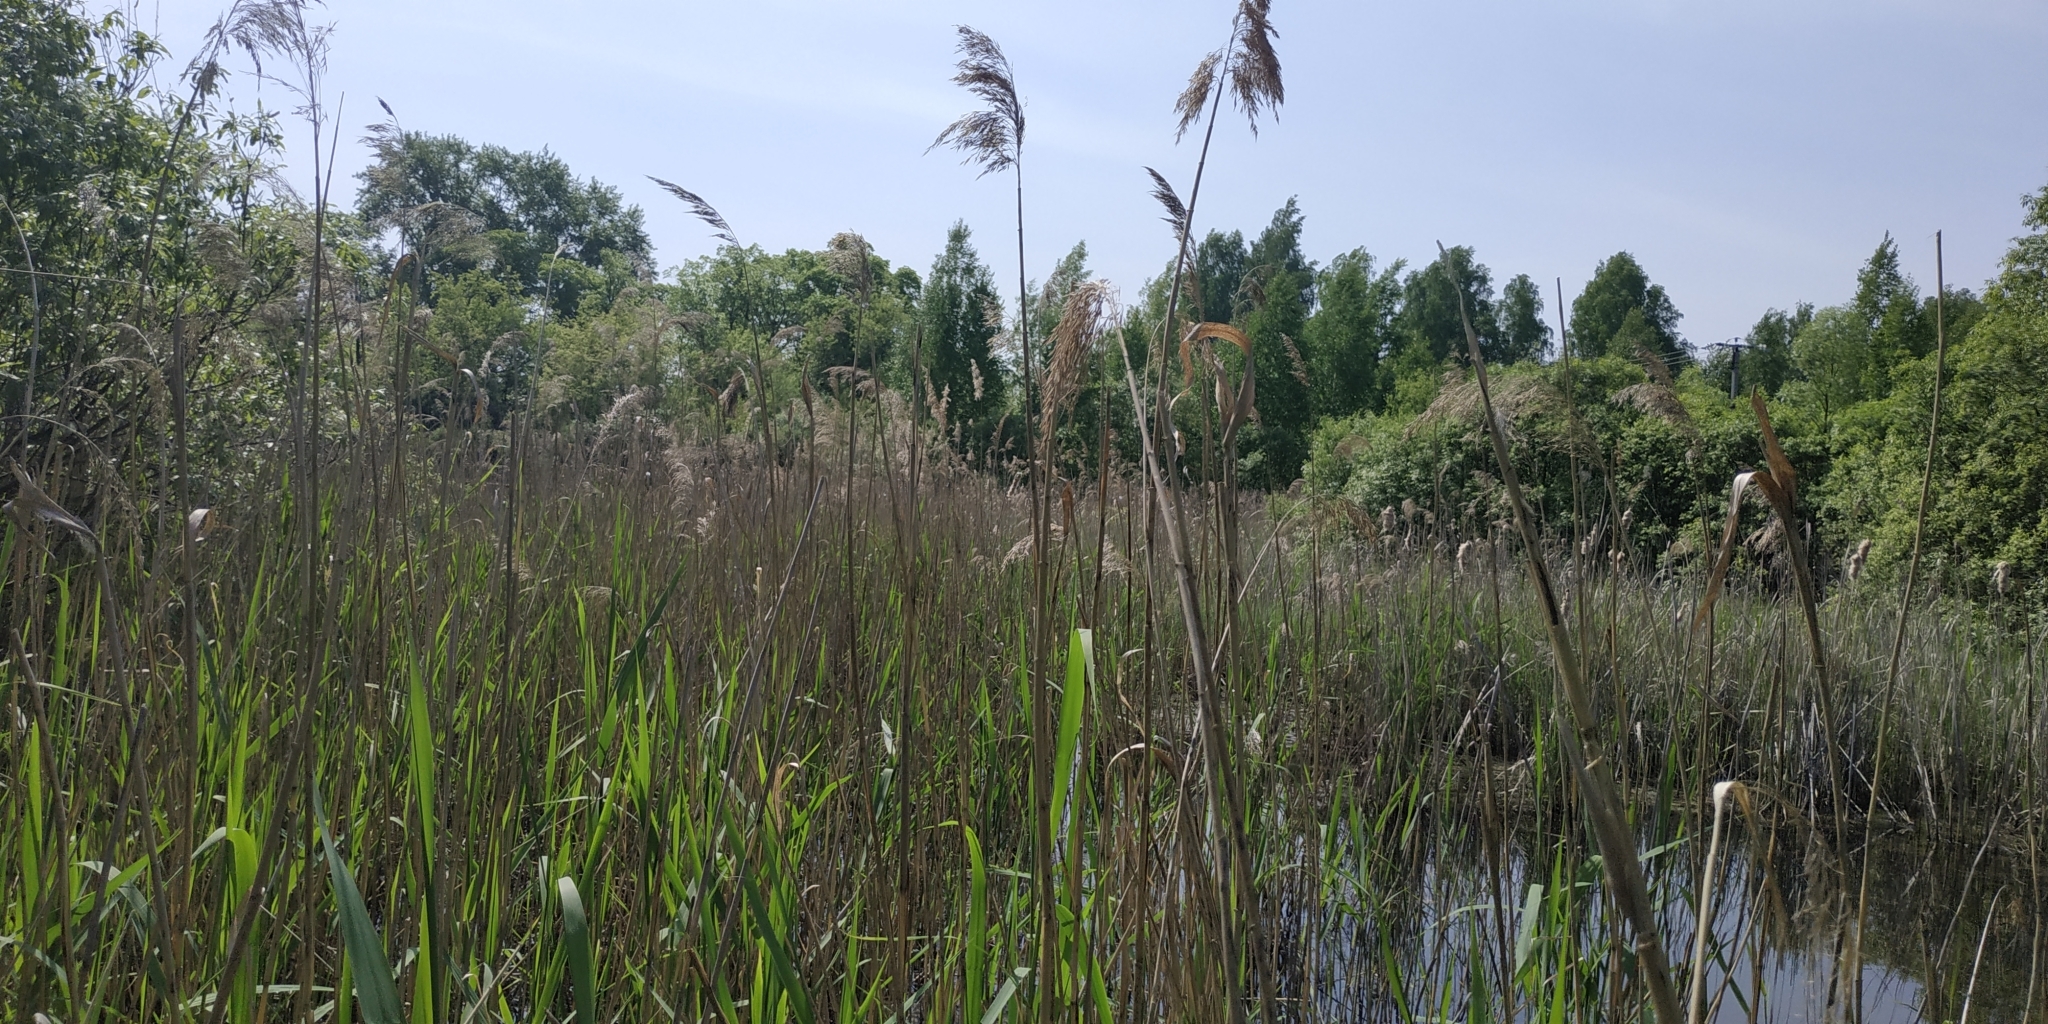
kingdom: Plantae
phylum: Tracheophyta
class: Liliopsida
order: Poales
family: Poaceae
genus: Phragmites
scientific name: Phragmites australis
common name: Common reed
